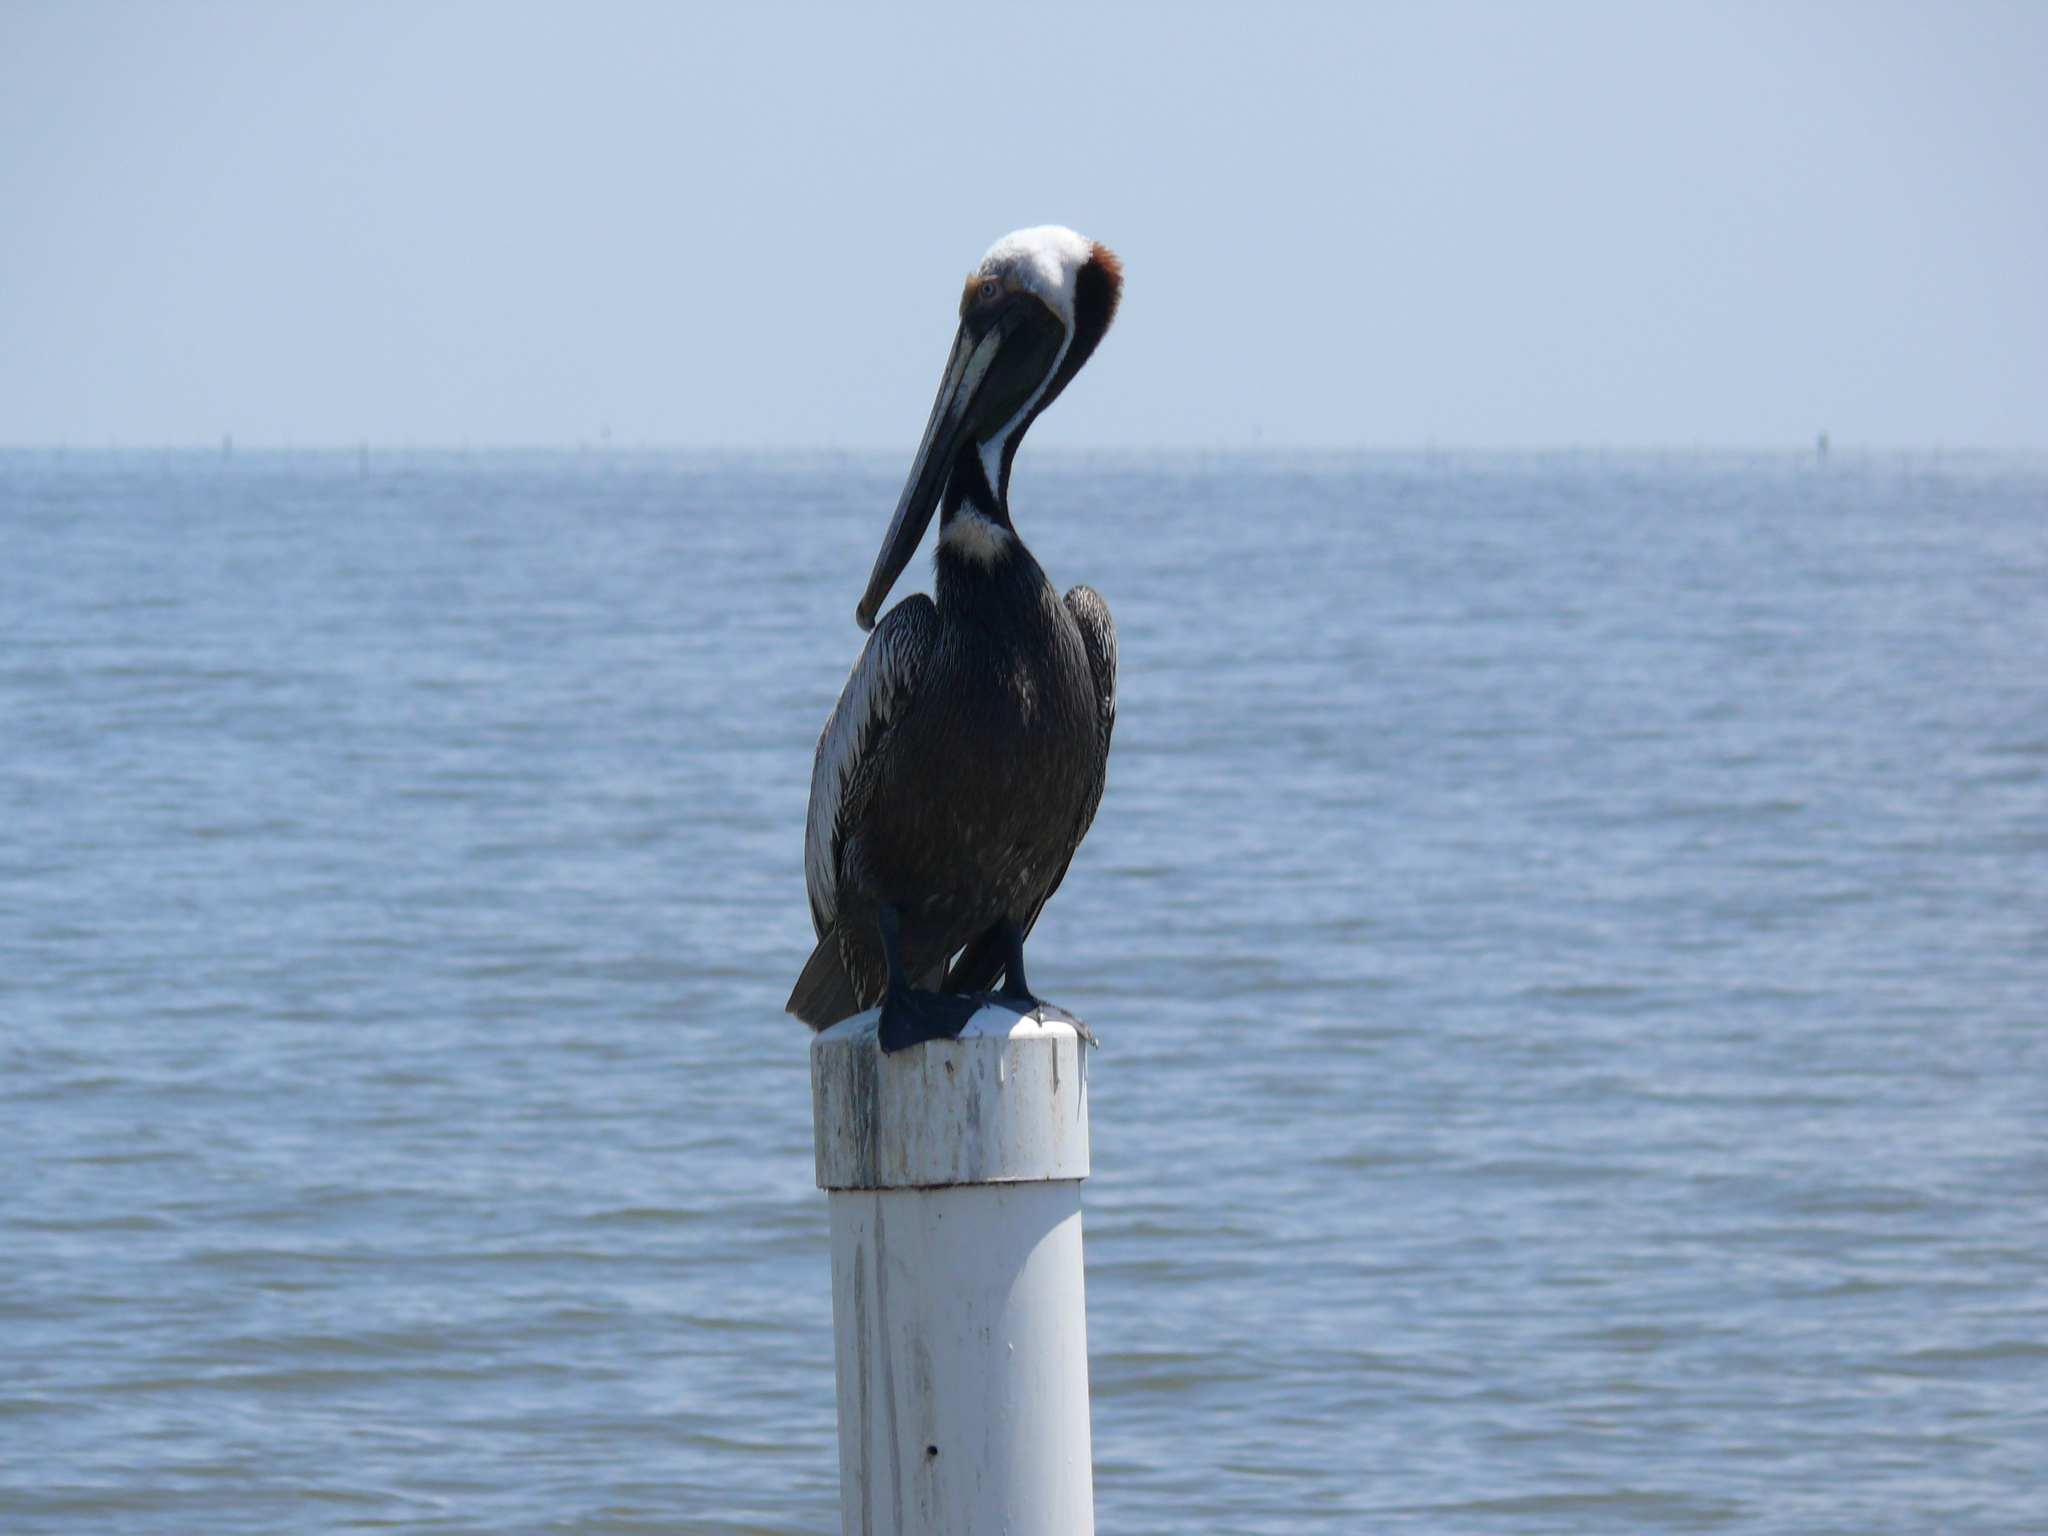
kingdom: Animalia
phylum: Chordata
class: Aves
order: Pelecaniformes
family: Pelecanidae
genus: Pelecanus
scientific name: Pelecanus occidentalis
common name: Brown pelican
